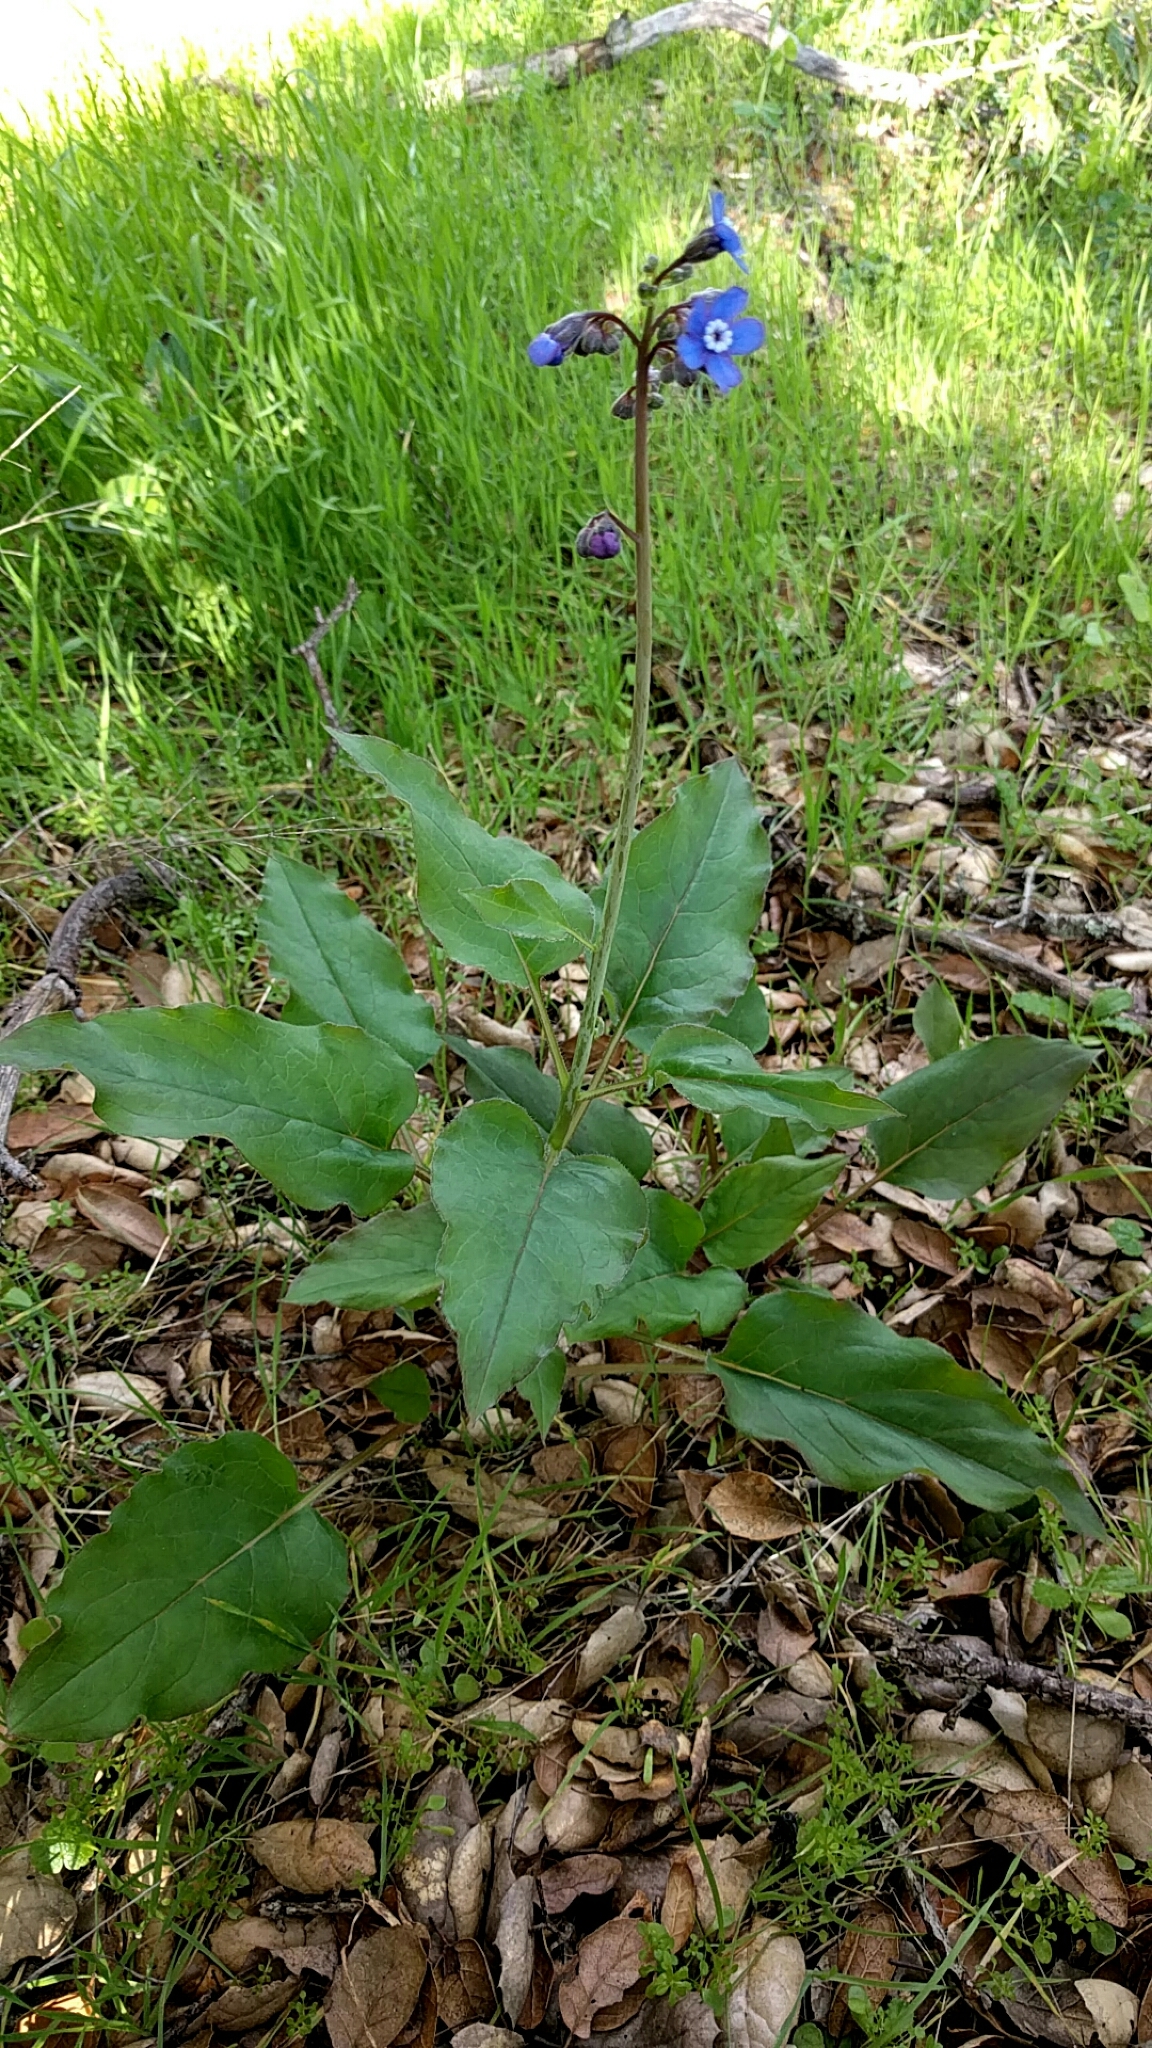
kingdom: Plantae
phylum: Tracheophyta
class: Magnoliopsida
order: Boraginales
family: Boraginaceae
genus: Adelinia
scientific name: Adelinia grande
